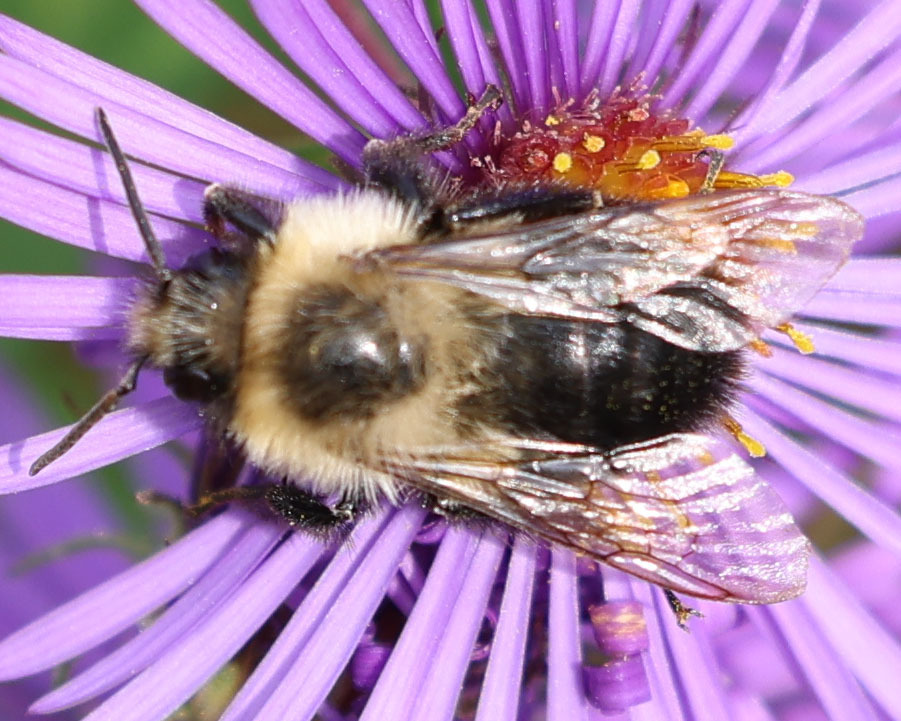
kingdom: Animalia
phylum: Arthropoda
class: Insecta
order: Hymenoptera
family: Apidae
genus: Bombus
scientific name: Bombus impatiens
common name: Common eastern bumble bee
